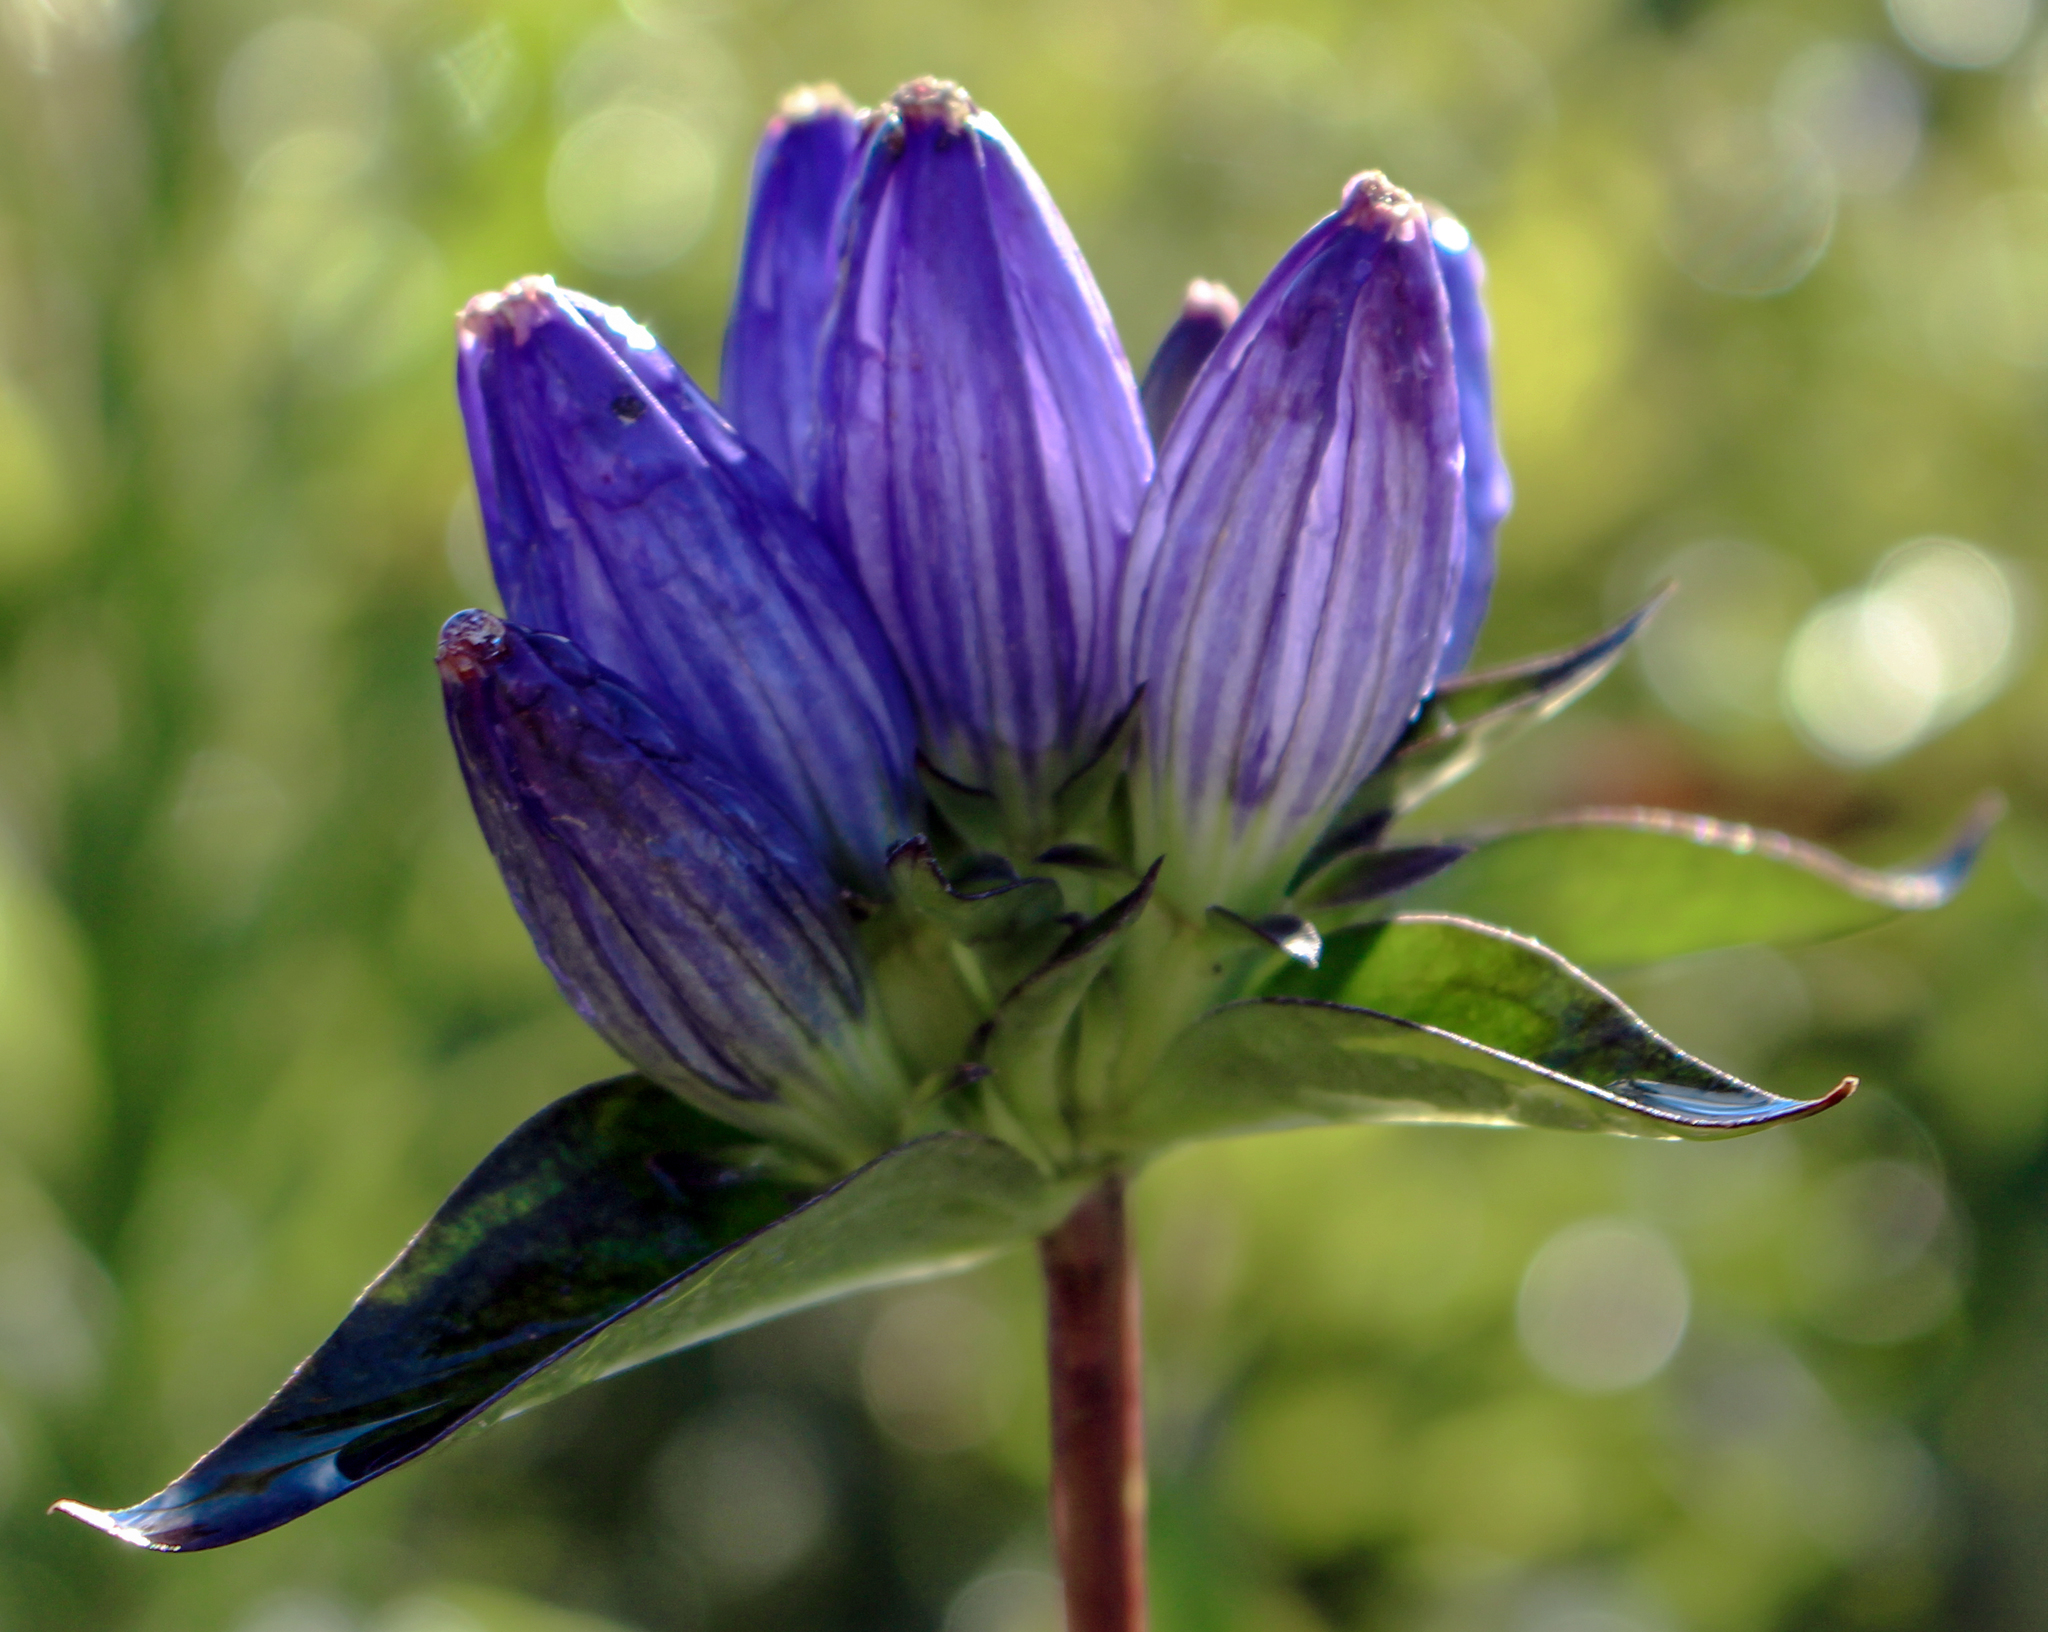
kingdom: Plantae
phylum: Tracheophyta
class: Magnoliopsida
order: Gentianales
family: Gentianaceae
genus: Gentiana
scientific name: Gentiana andrewsii
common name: Bottle gentian
